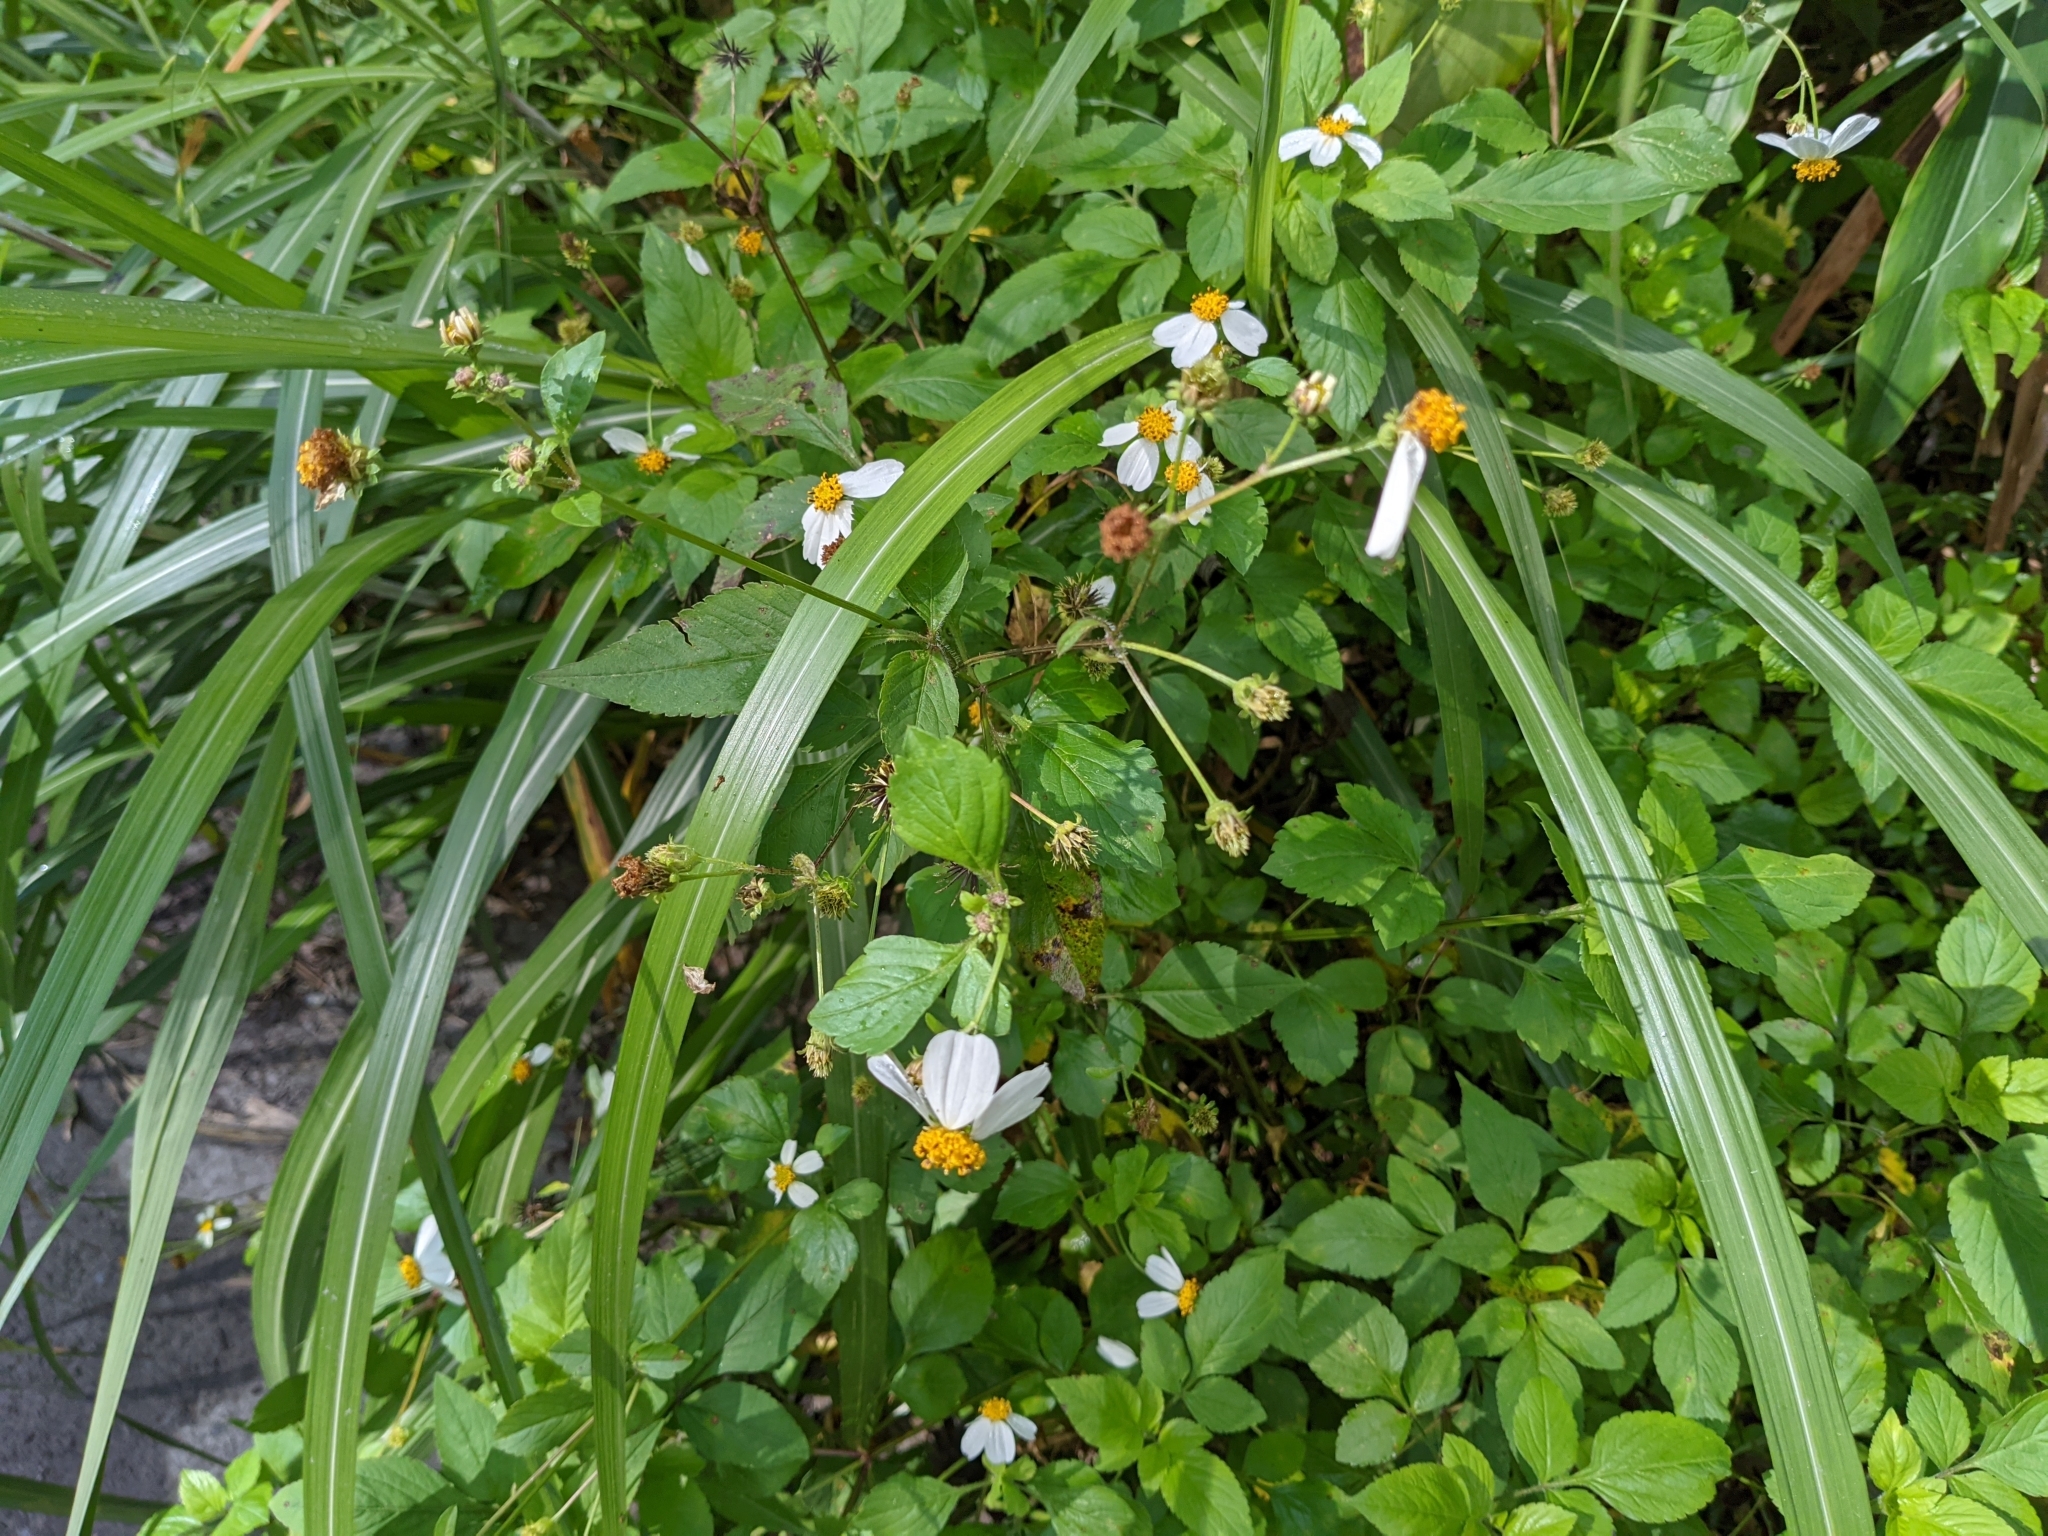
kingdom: Plantae
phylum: Tracheophyta
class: Magnoliopsida
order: Asterales
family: Asteraceae
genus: Eupatorium
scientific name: Eupatorium formosanum
